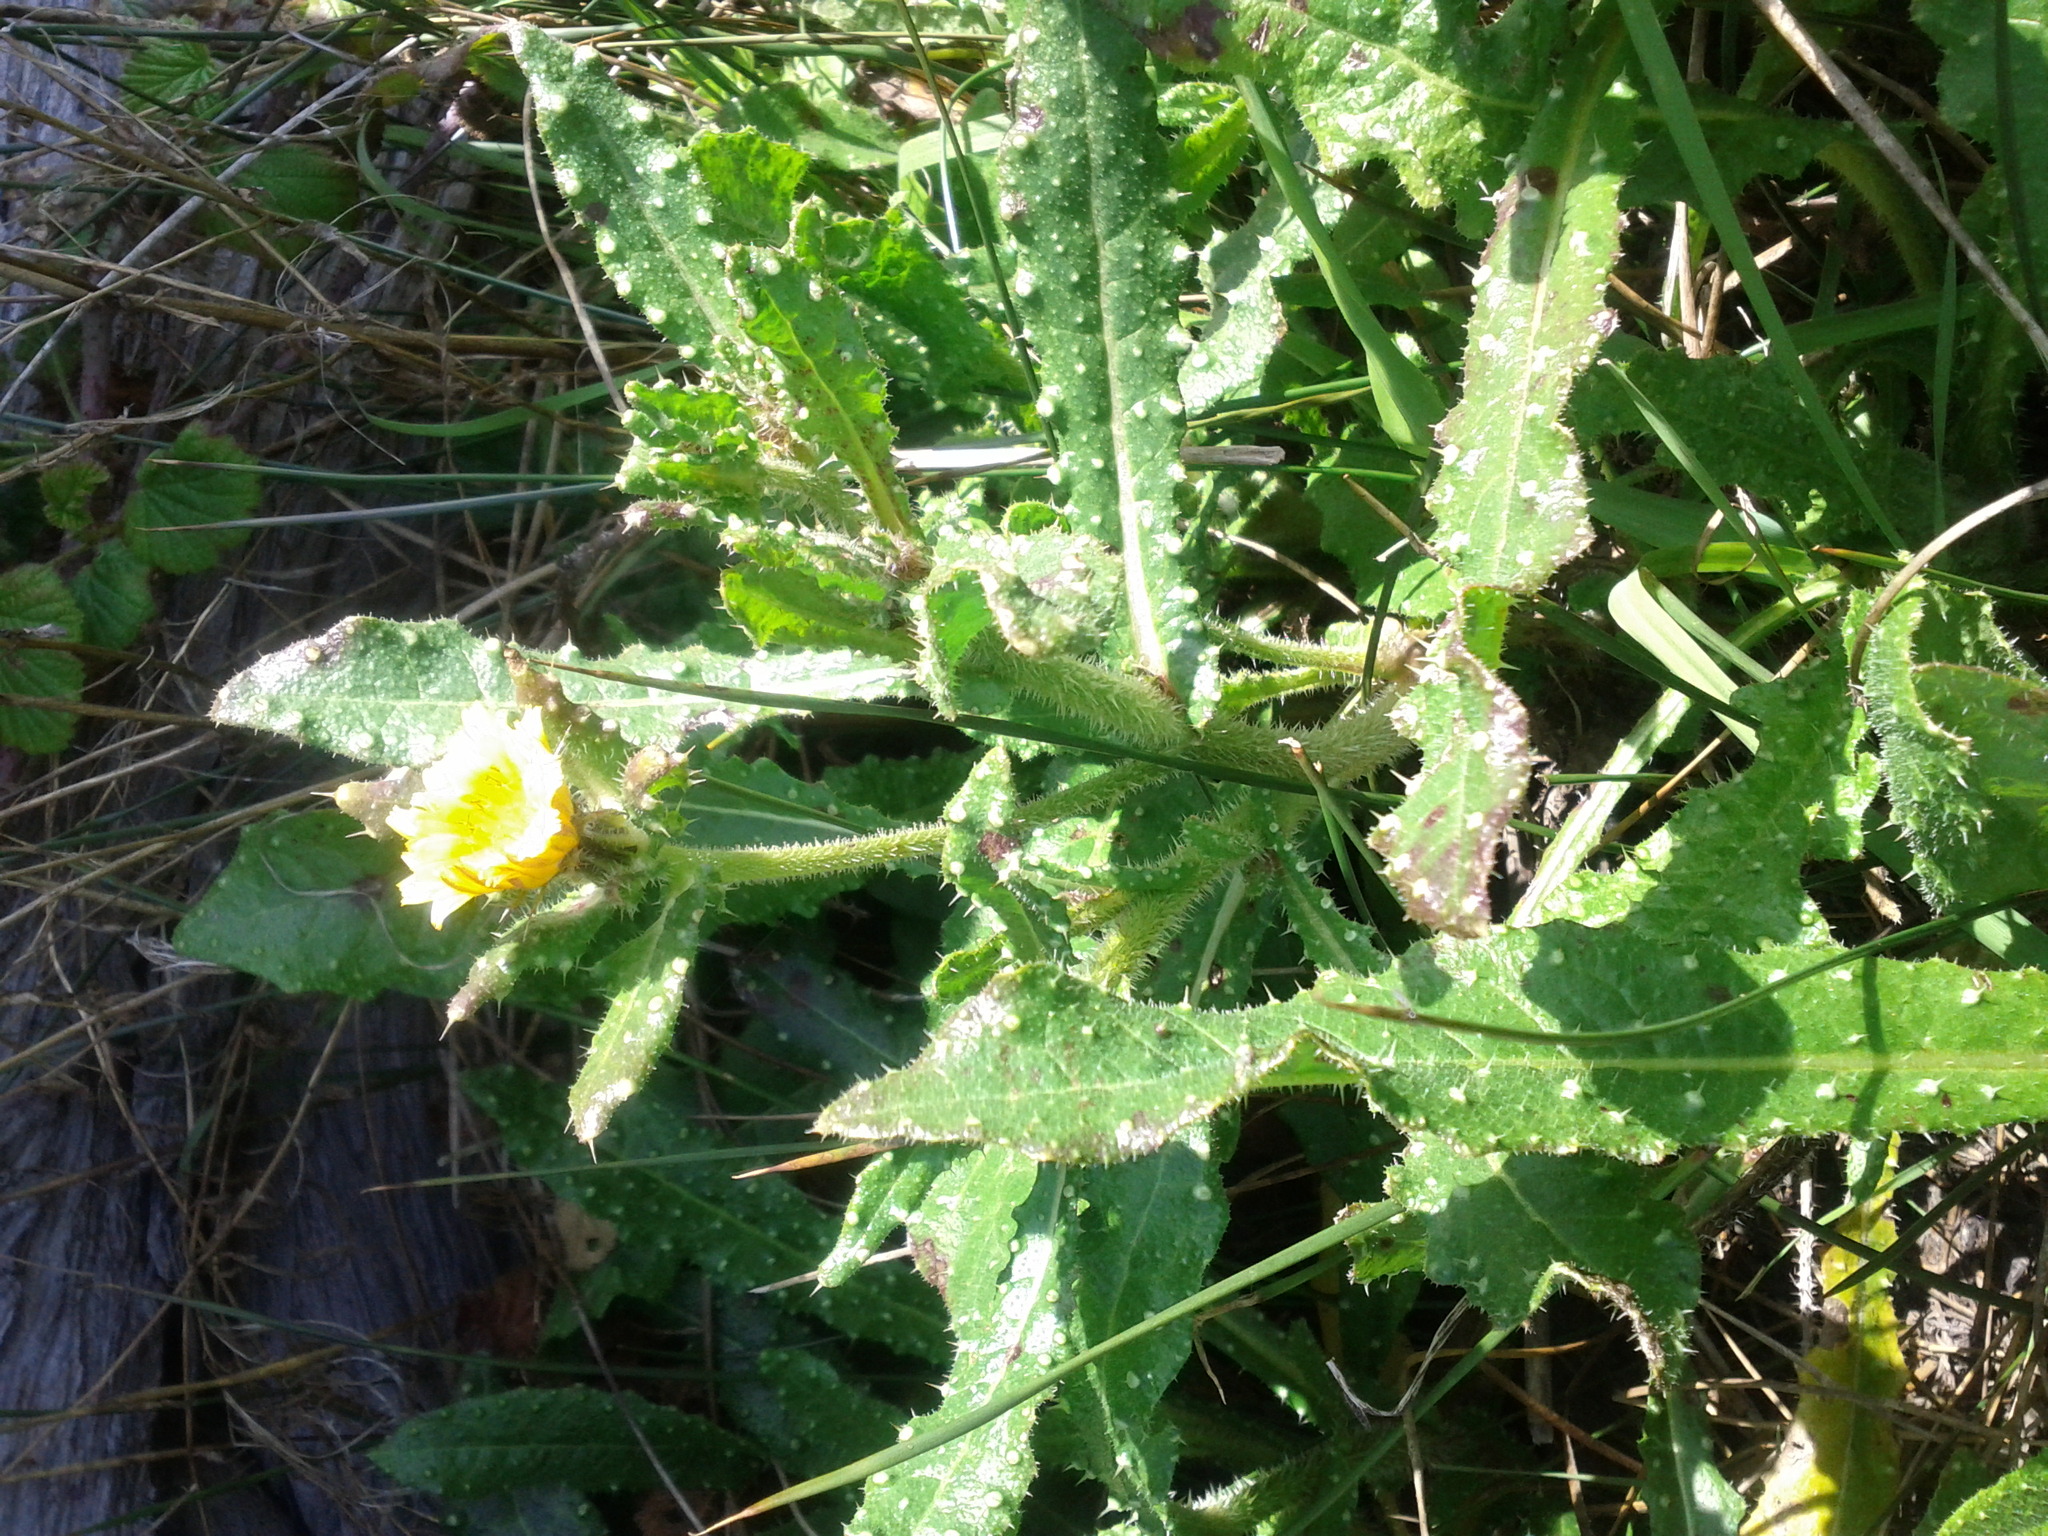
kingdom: Plantae
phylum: Tracheophyta
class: Magnoliopsida
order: Asterales
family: Asteraceae
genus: Helminthotheca
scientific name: Helminthotheca echioides
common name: Ox-tongue
